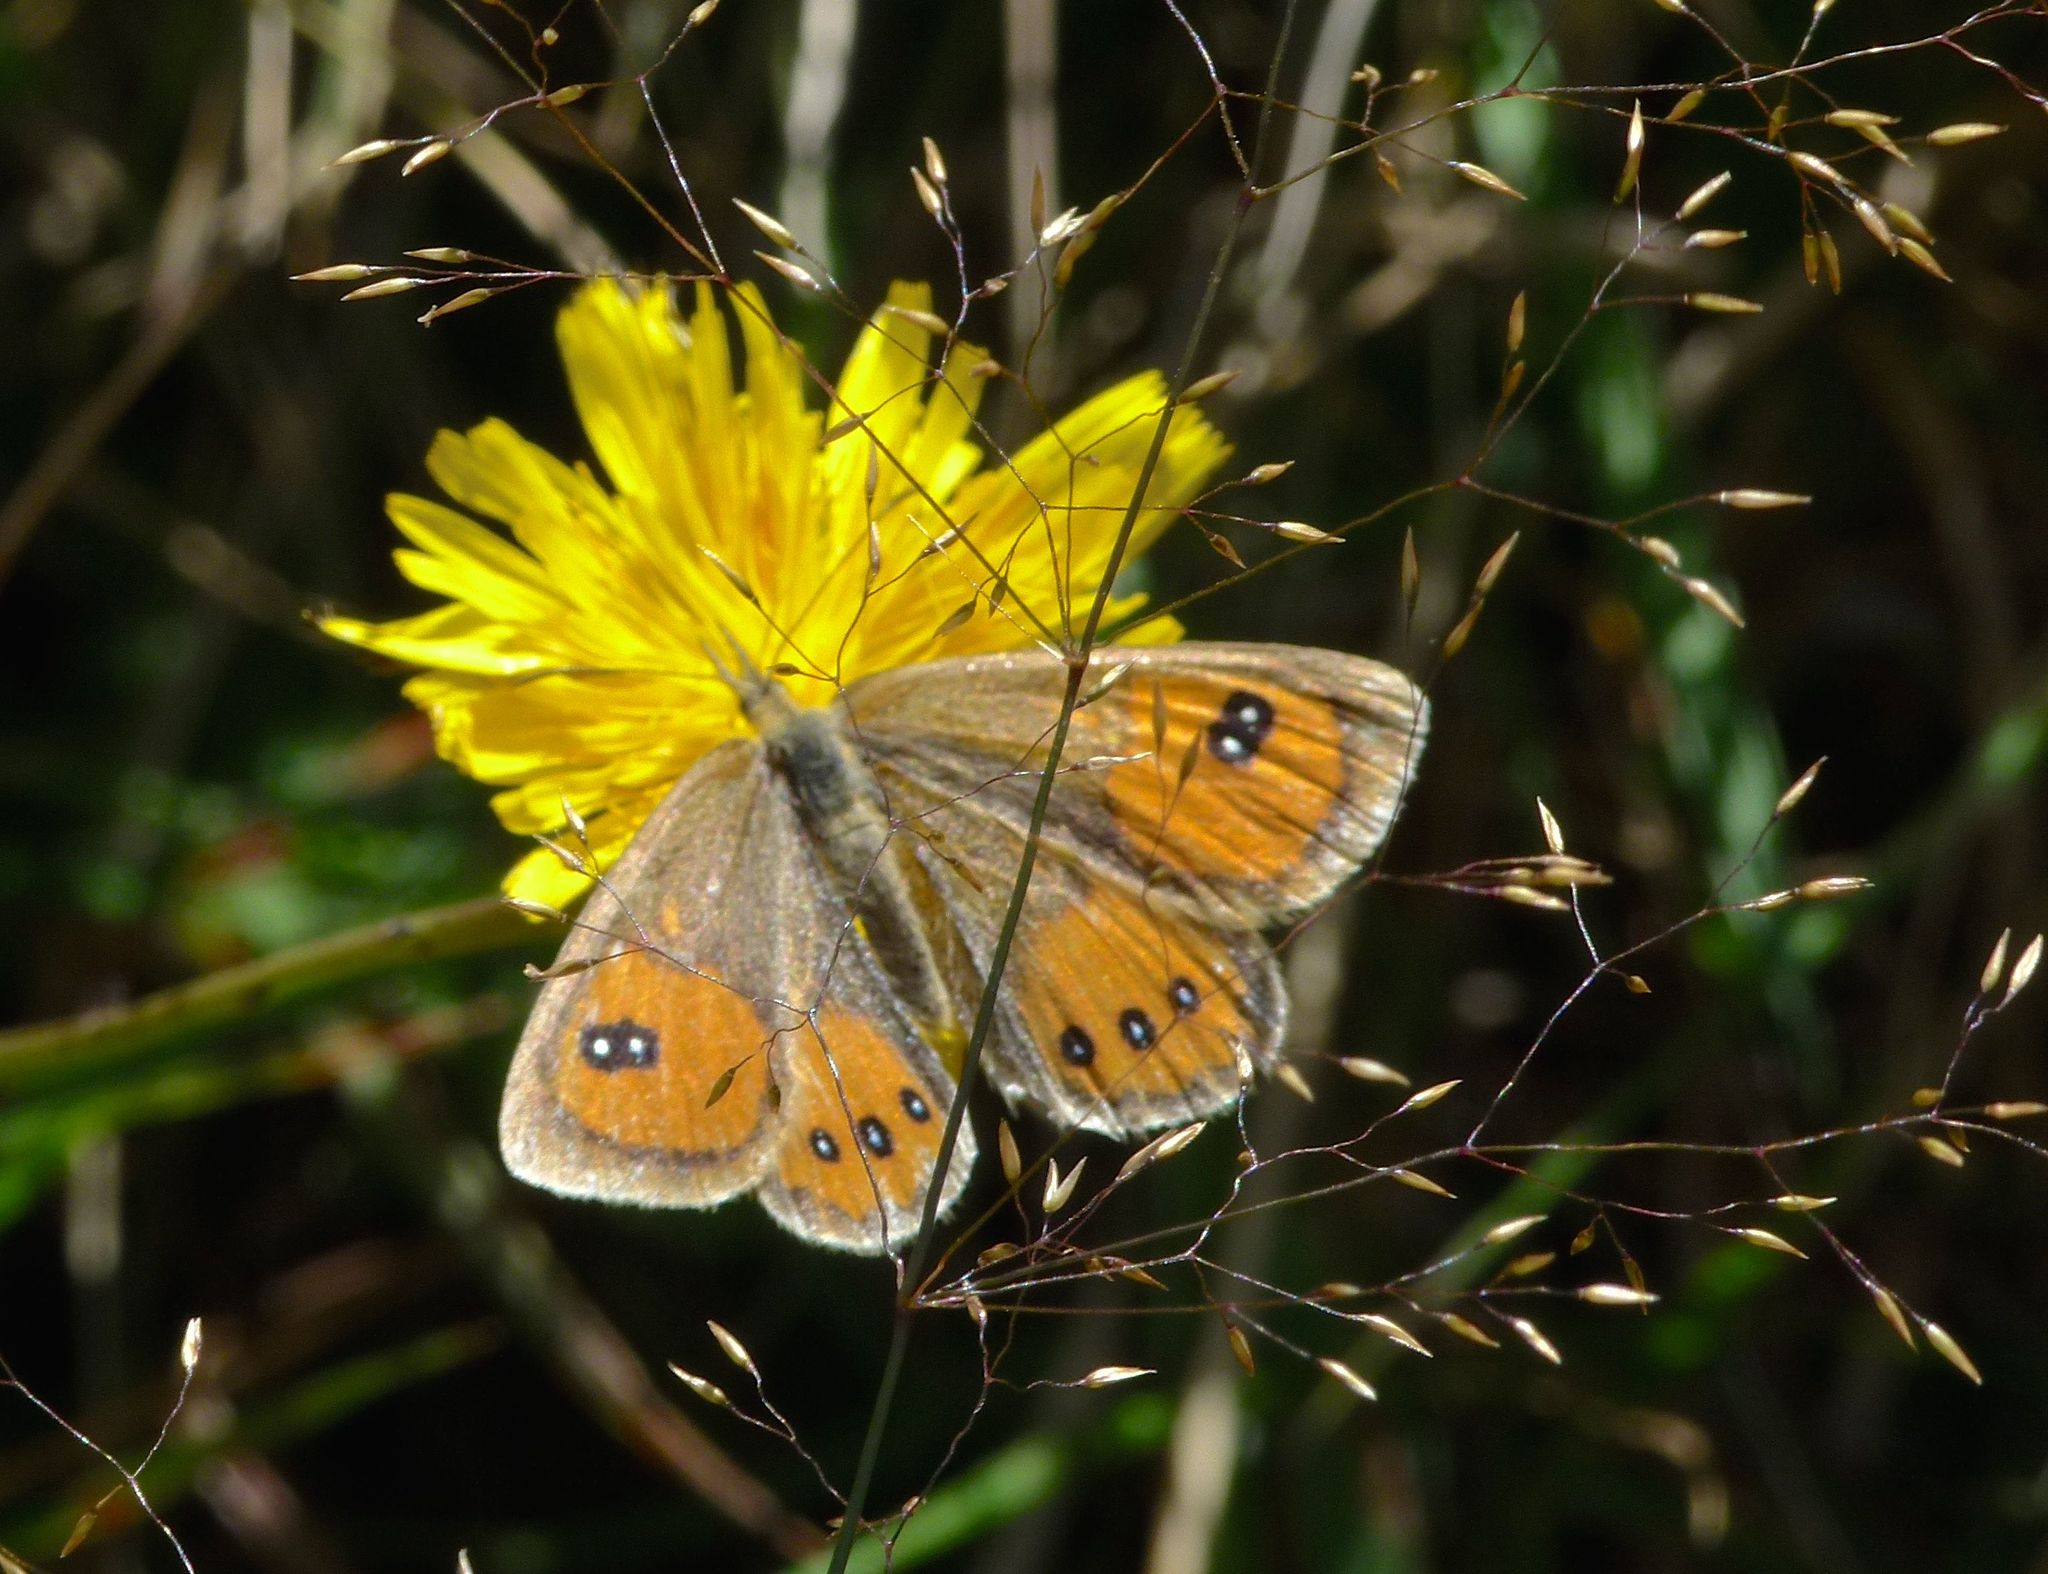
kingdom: Animalia
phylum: Arthropoda
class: Insecta
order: Lepidoptera
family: Nymphalidae
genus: Argyrophenga
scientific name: Argyrophenga antipodum
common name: Common tussock butterfly
